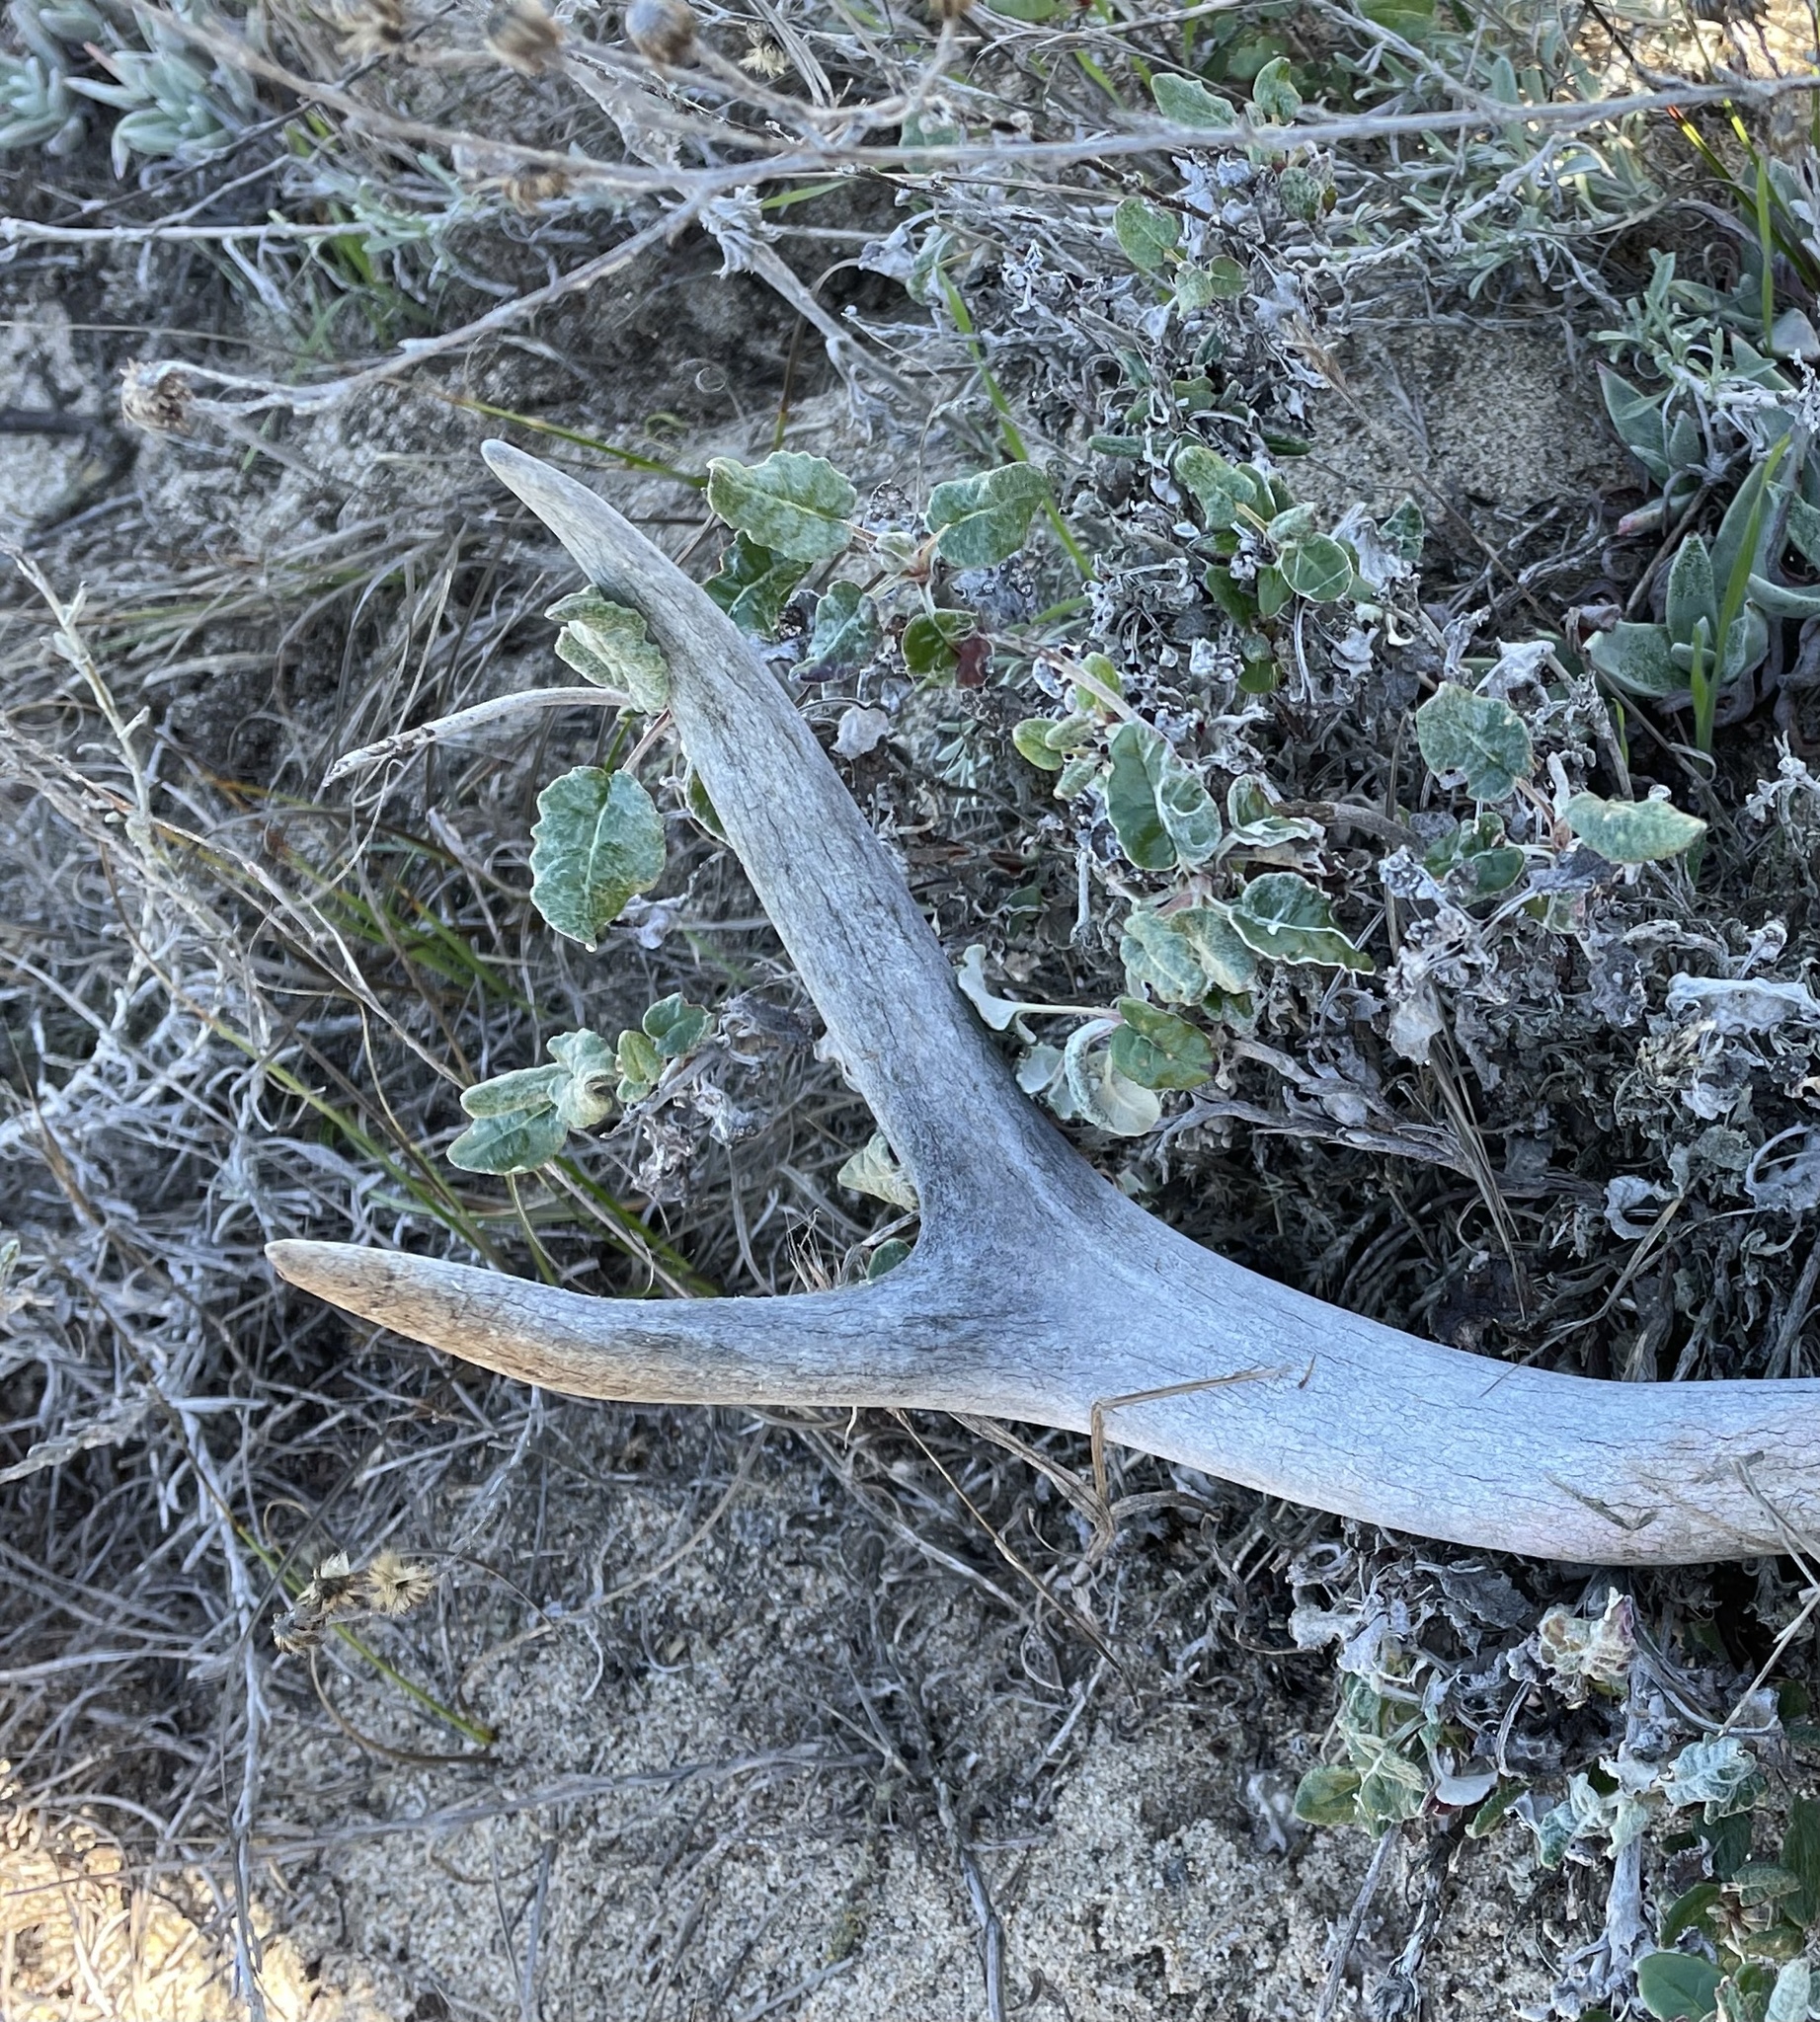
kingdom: Animalia
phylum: Chordata
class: Mammalia
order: Artiodactyla
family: Cervidae
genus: Odocoileus
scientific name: Odocoileus hemionus
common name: Mule deer
